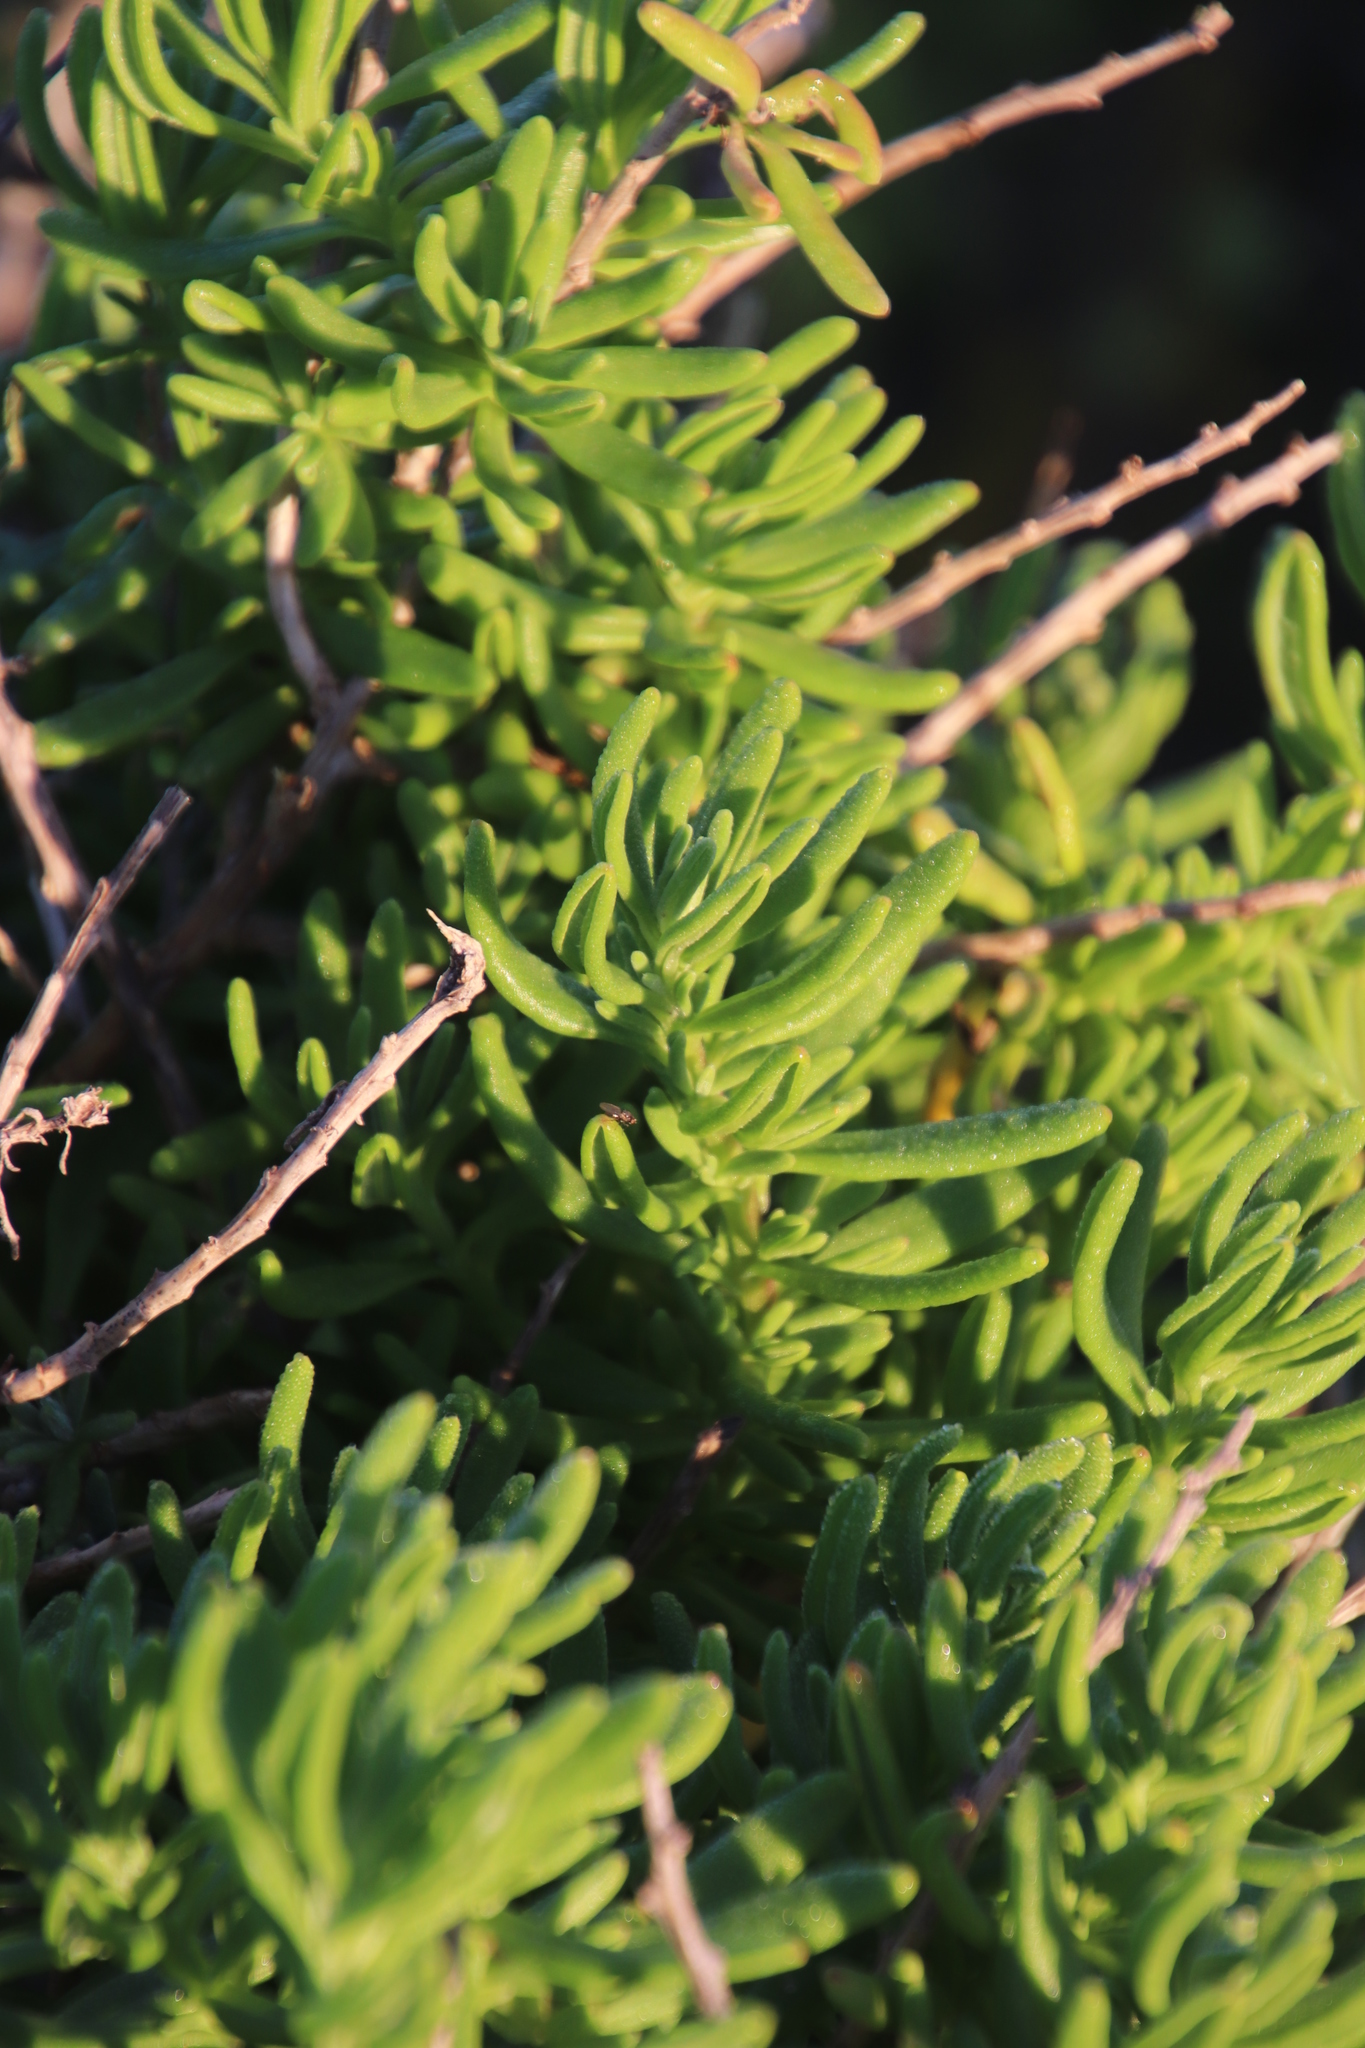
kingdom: Plantae
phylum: Tracheophyta
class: Magnoliopsida
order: Caryophyllales
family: Aizoaceae
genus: Tetragonia
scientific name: Tetragonia fruticosa
